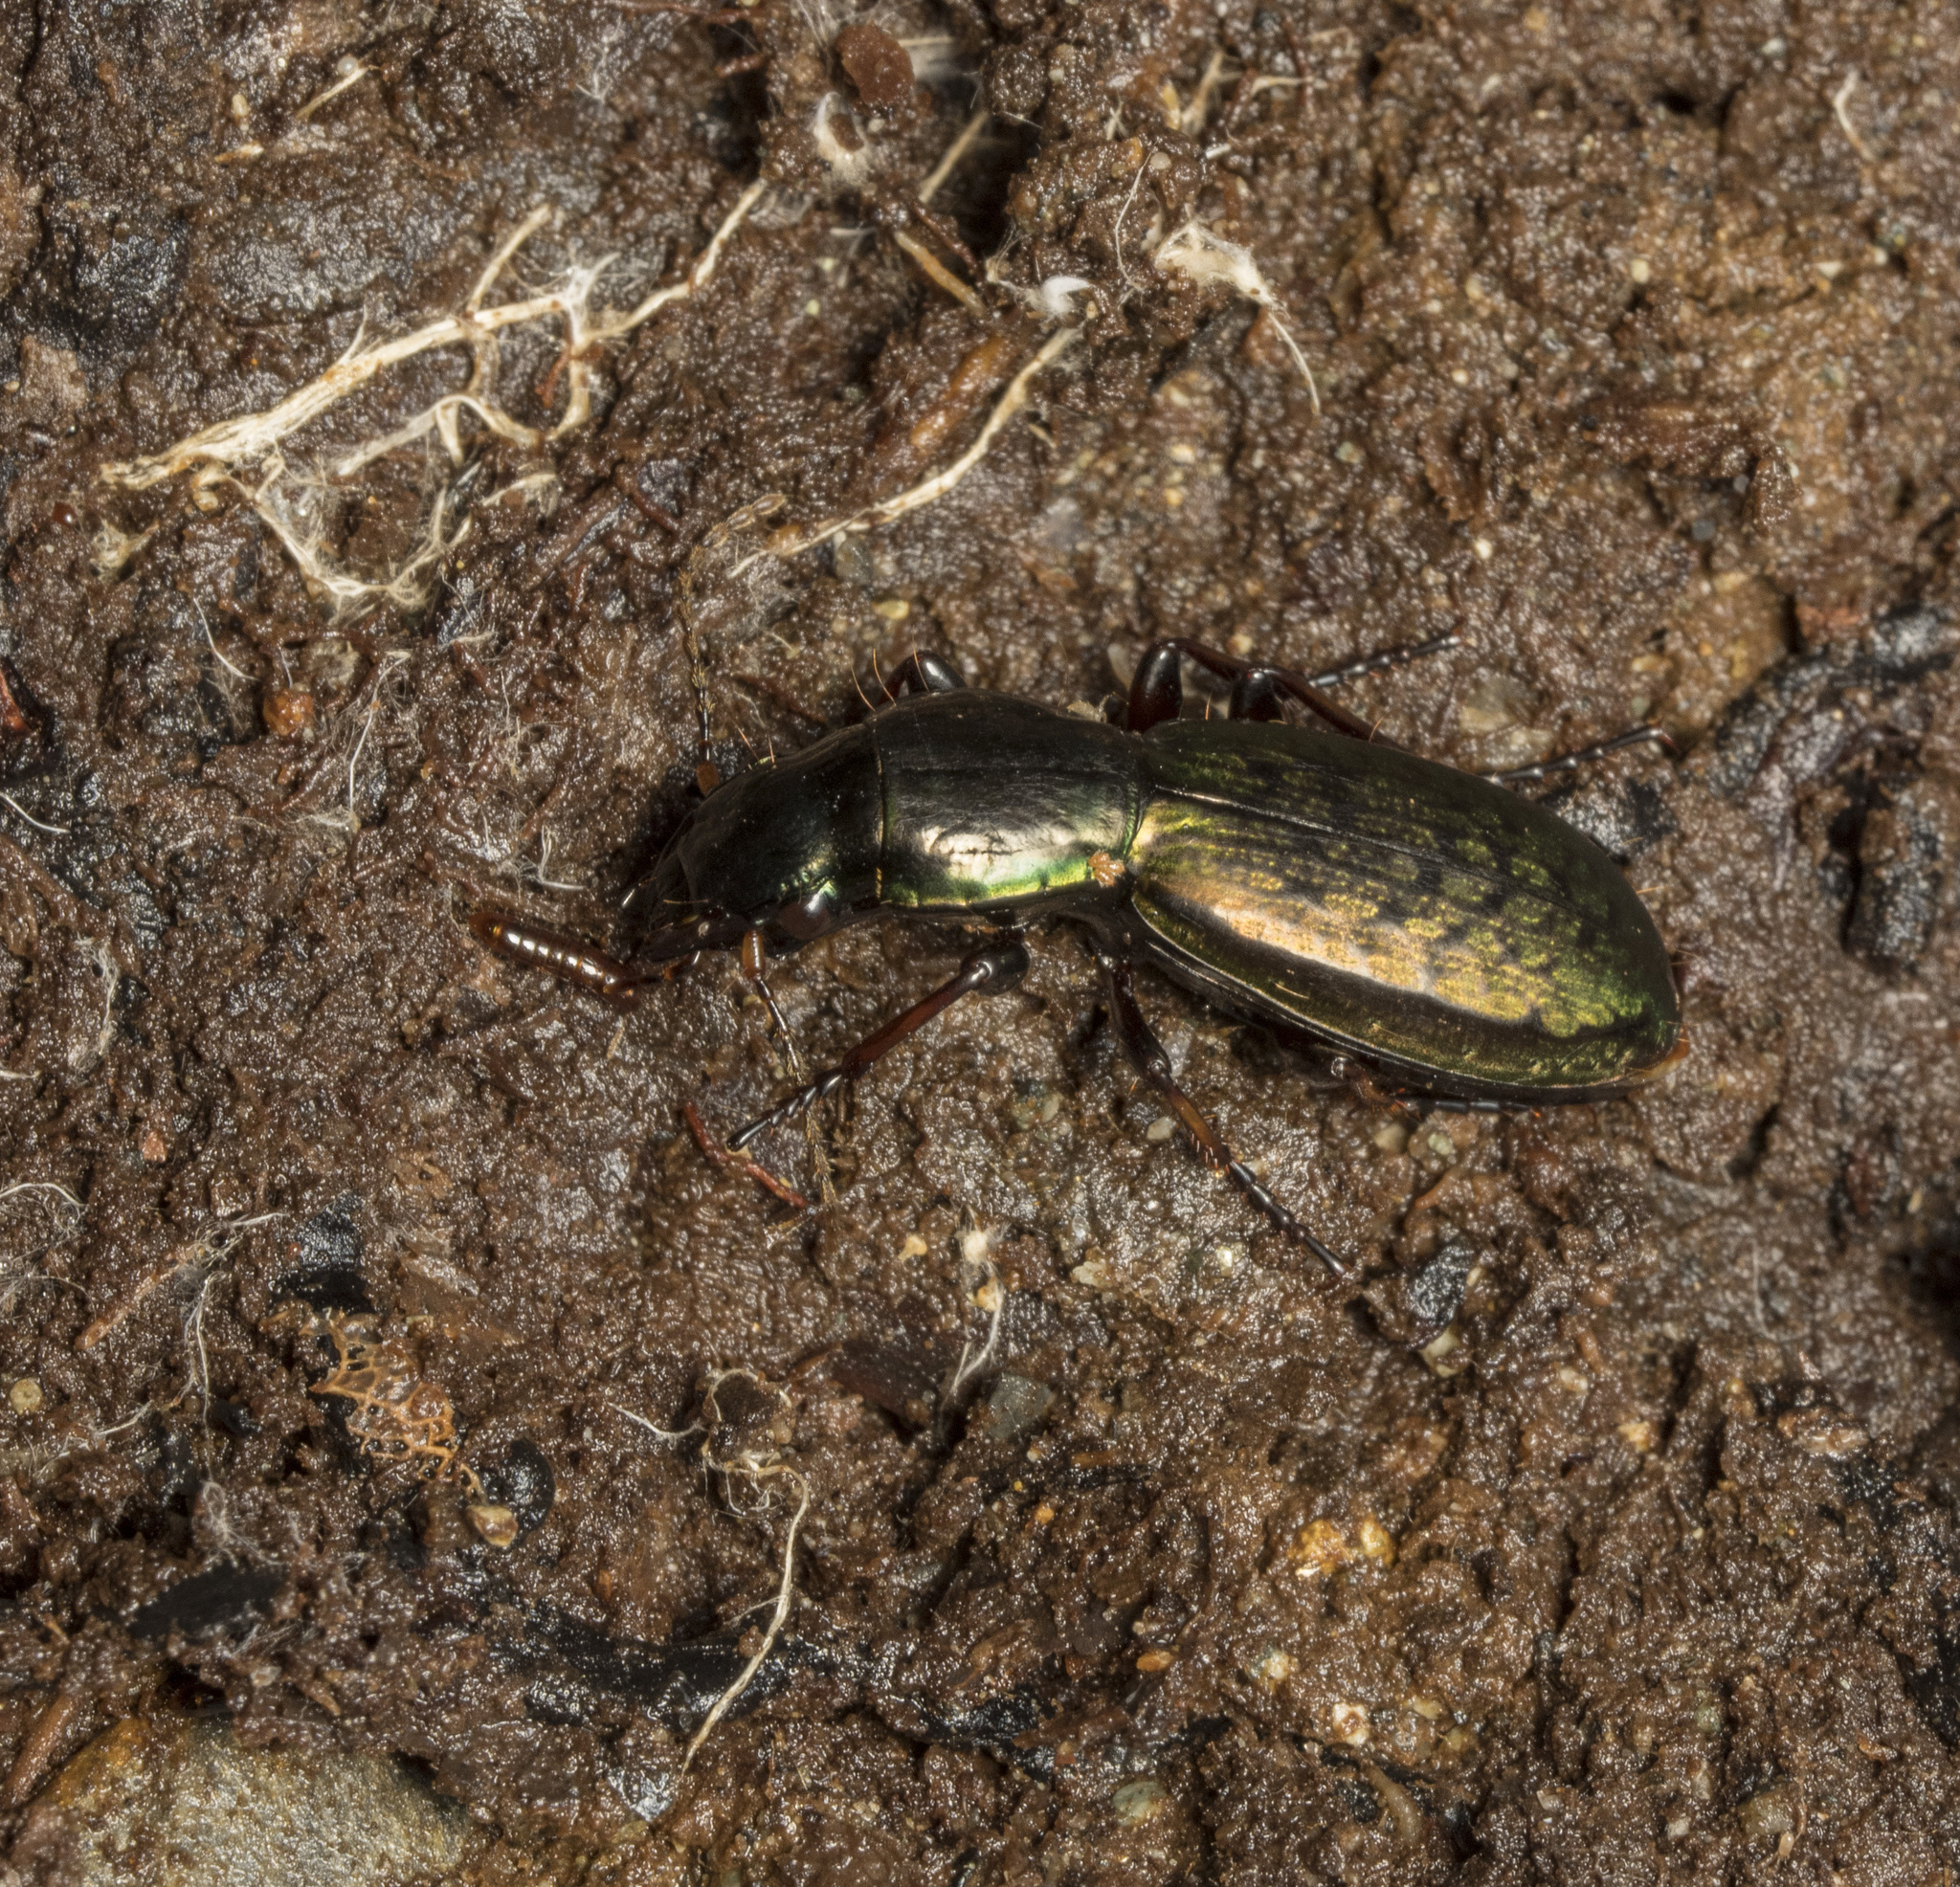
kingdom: Animalia
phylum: Arthropoda
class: Insecta
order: Coleoptera
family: Carabidae
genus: Creobius
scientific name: Creobius eydouxii
